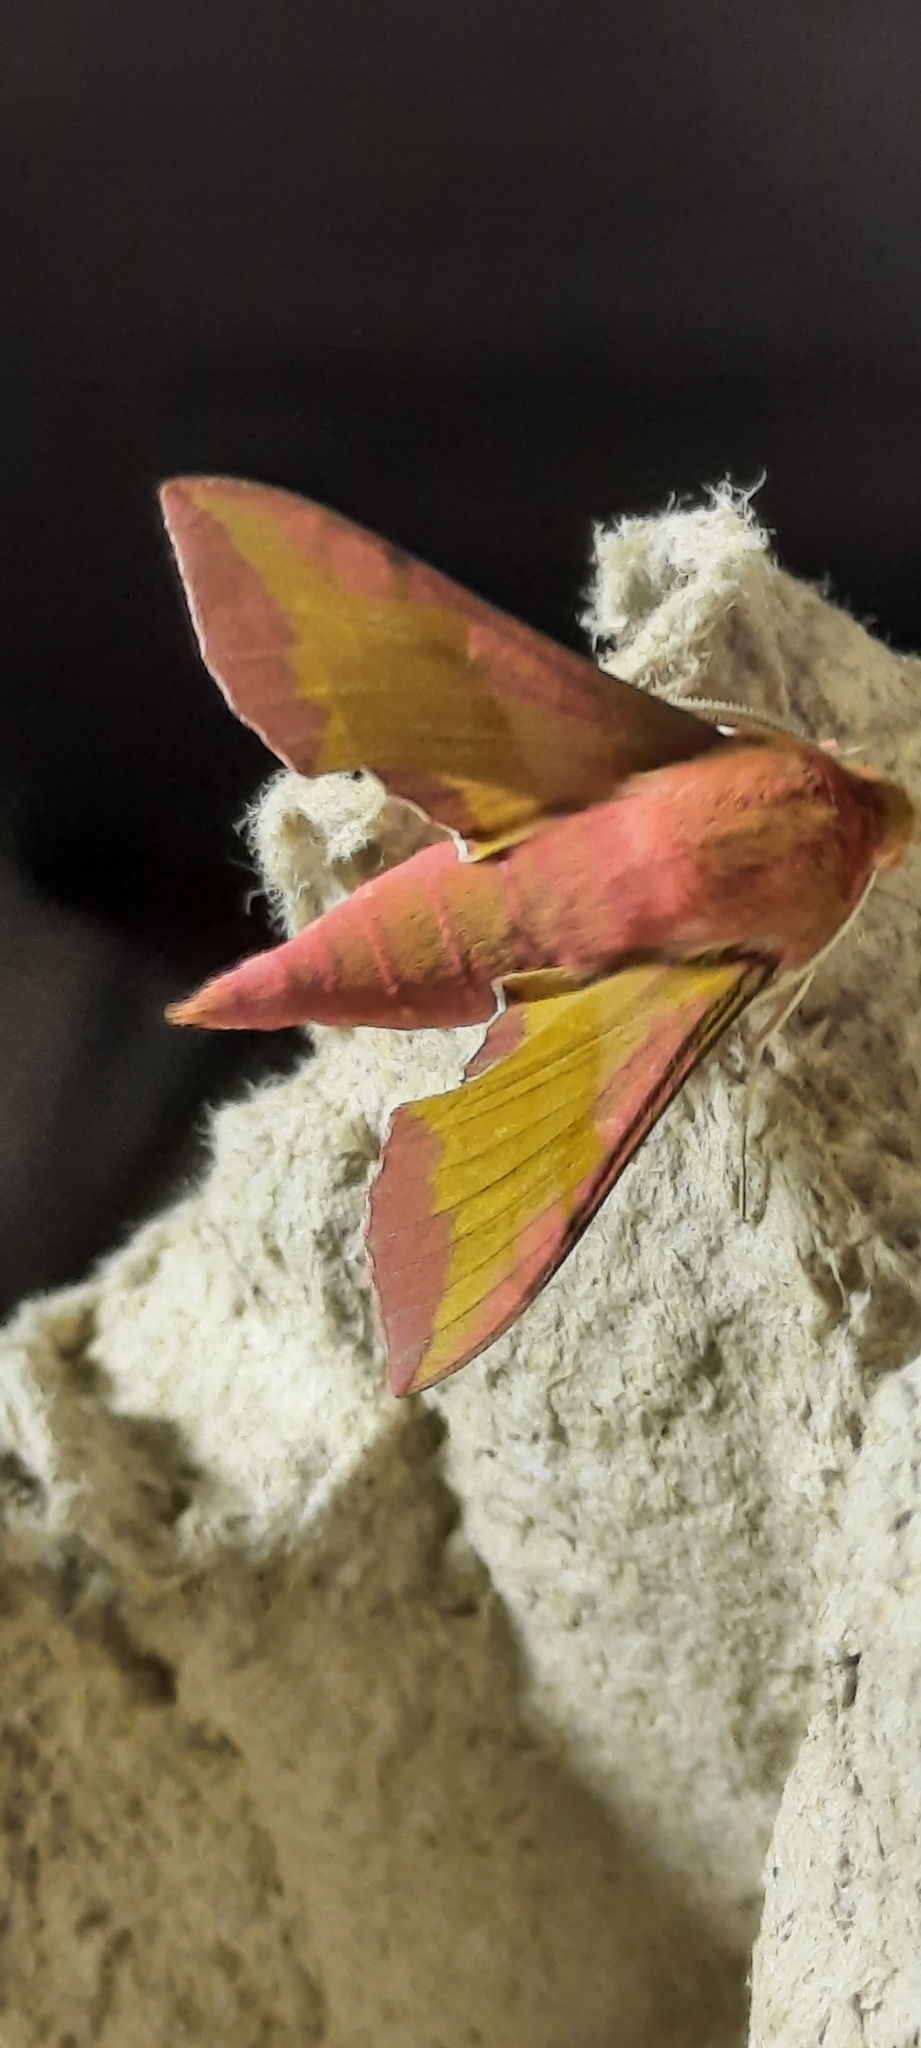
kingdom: Animalia
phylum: Arthropoda
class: Insecta
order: Lepidoptera
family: Sphingidae
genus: Deilephila
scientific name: Deilephila porcellus
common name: Small elephant hawk-moth
